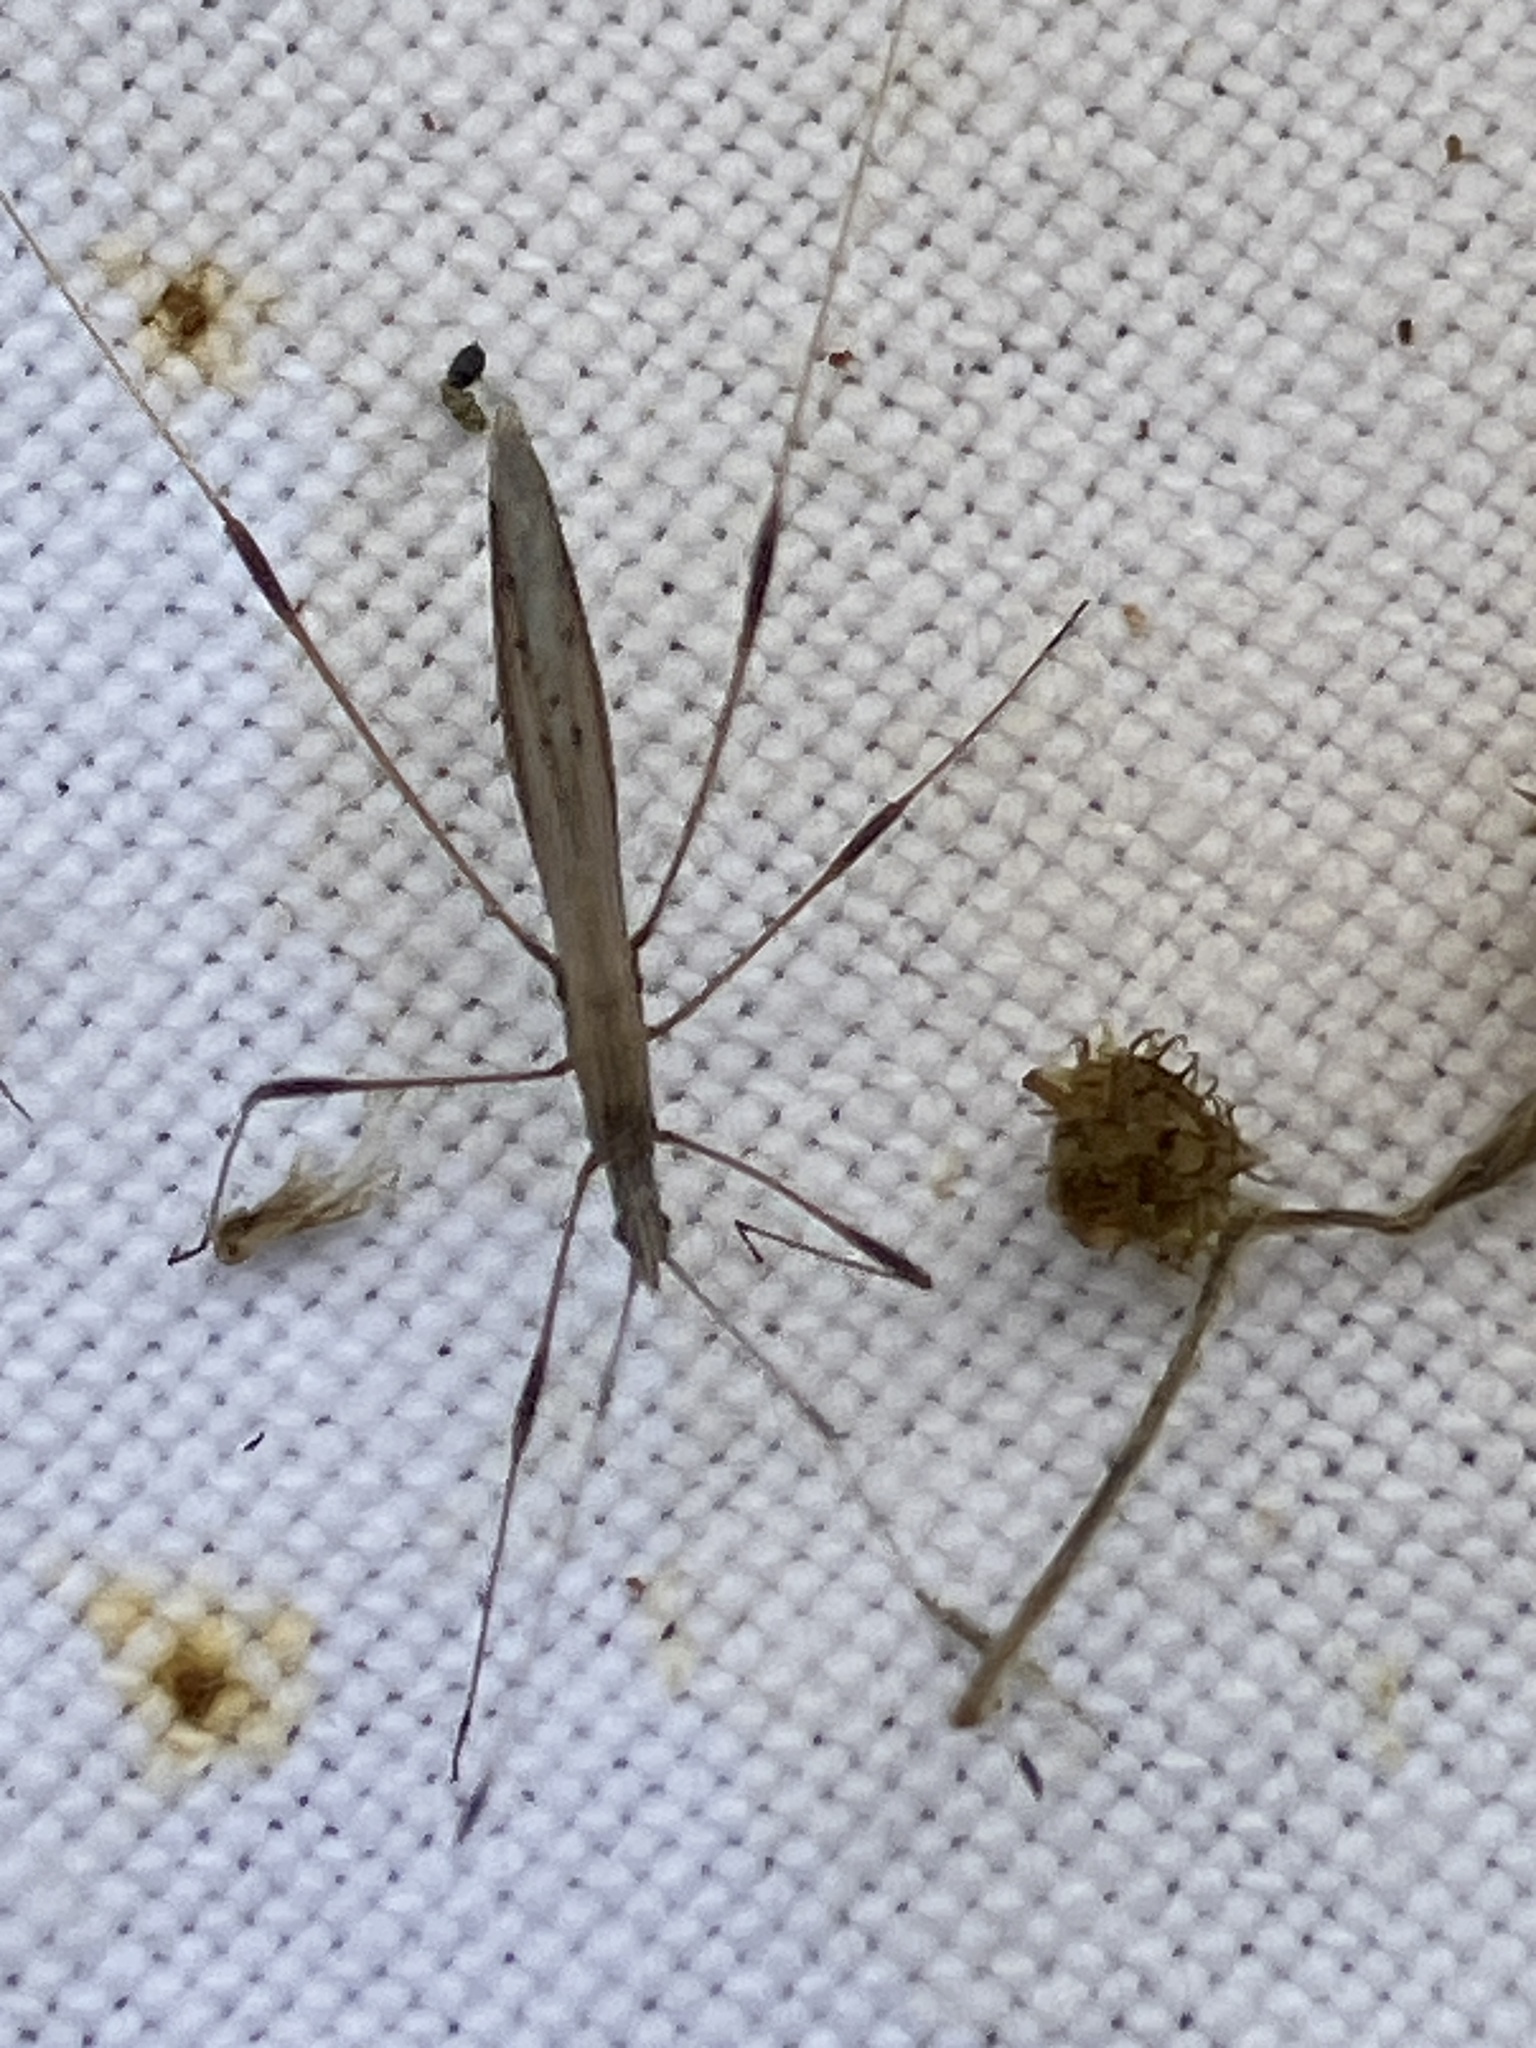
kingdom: Animalia
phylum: Arthropoda
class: Insecta
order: Hemiptera
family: Berytidae
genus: Neides
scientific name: Neides tipularius
